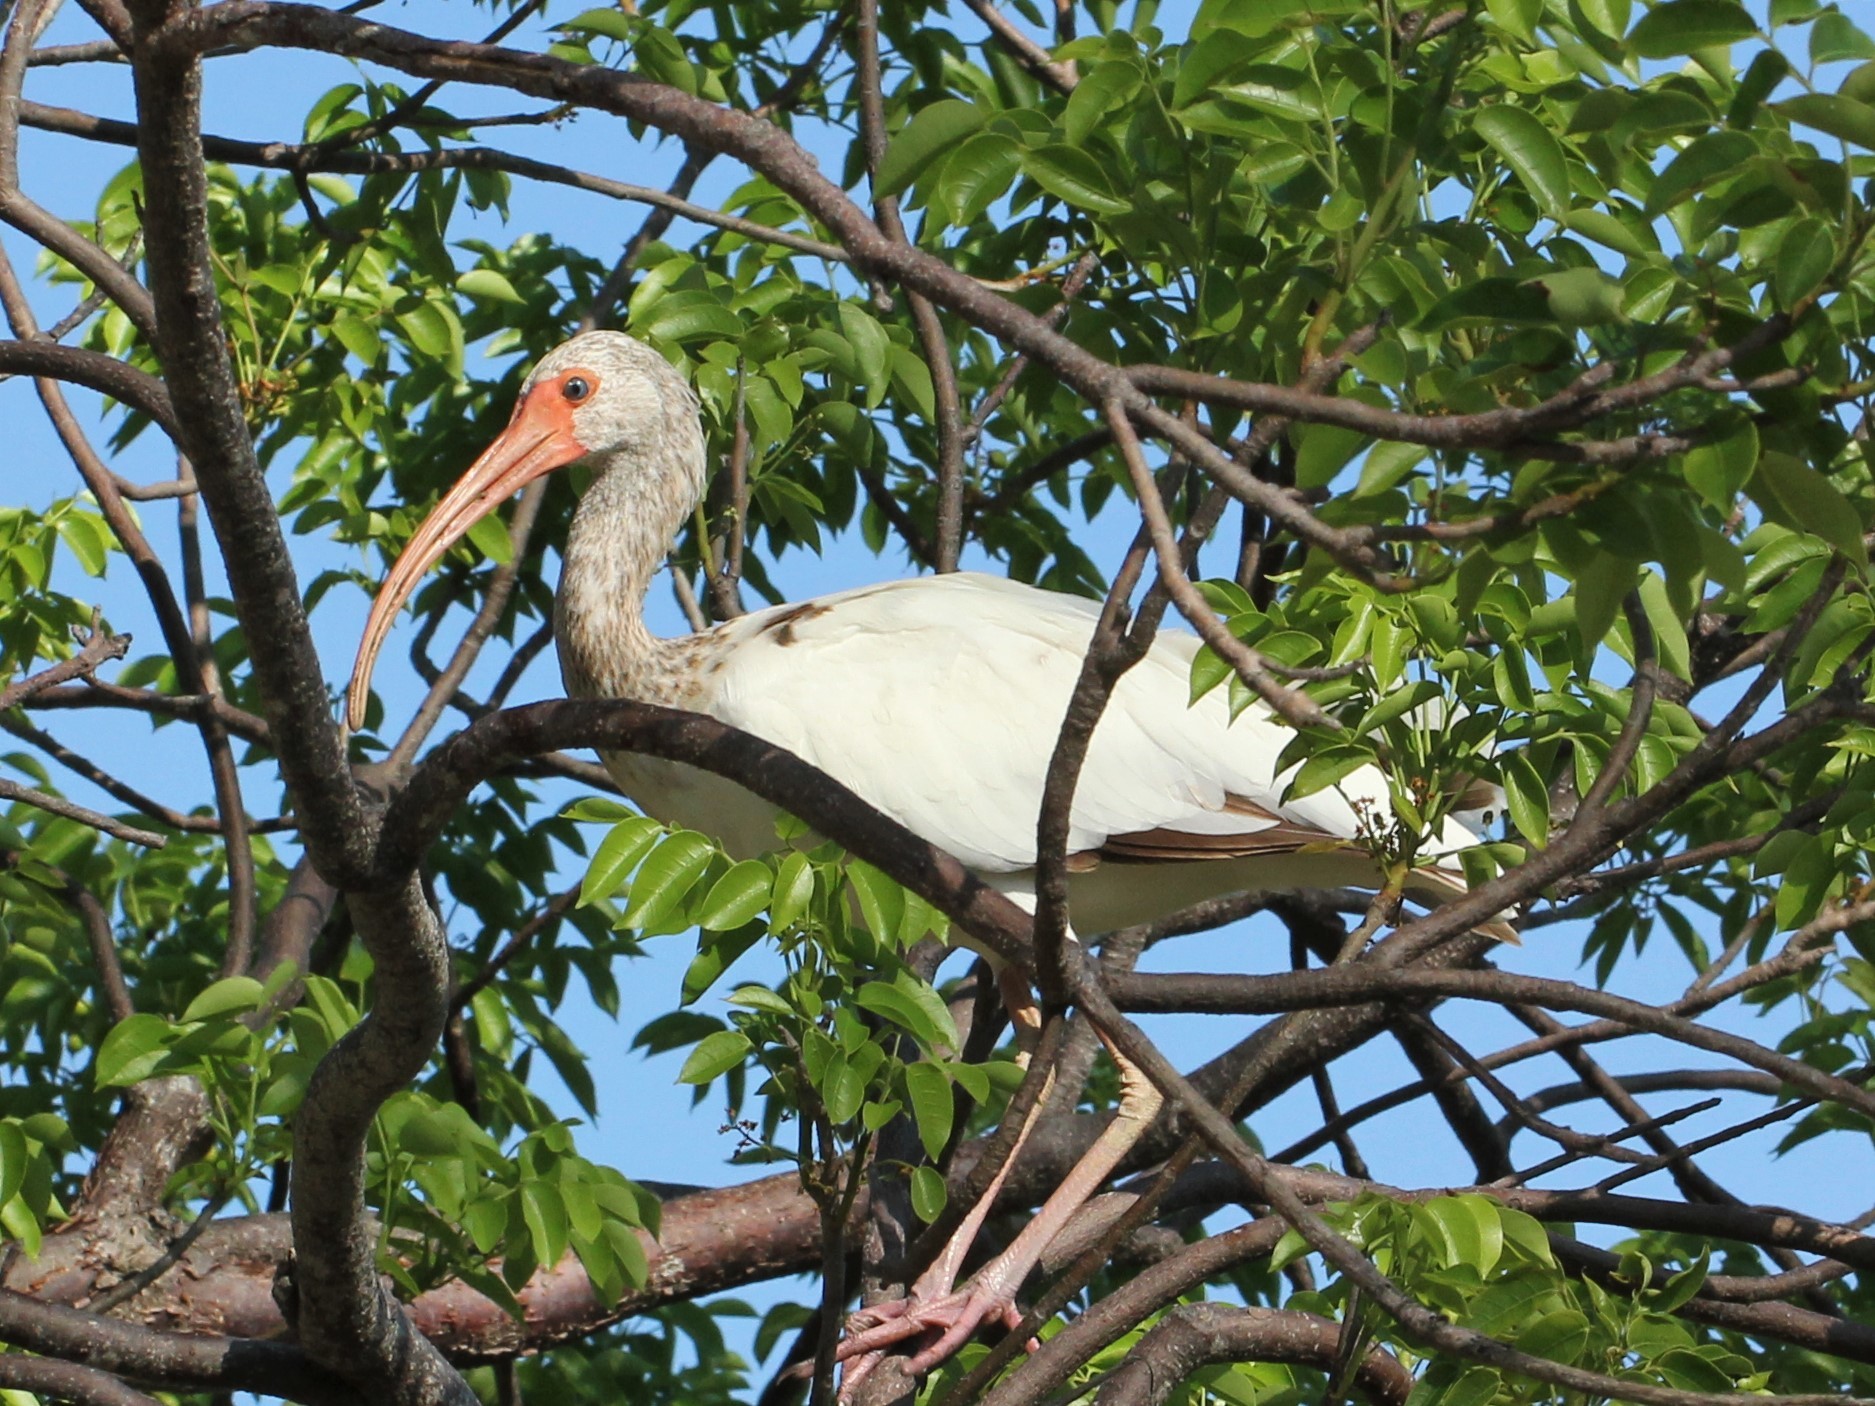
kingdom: Animalia
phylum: Chordata
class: Aves
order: Pelecaniformes
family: Threskiornithidae
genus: Eudocimus
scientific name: Eudocimus albus
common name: White ibis
